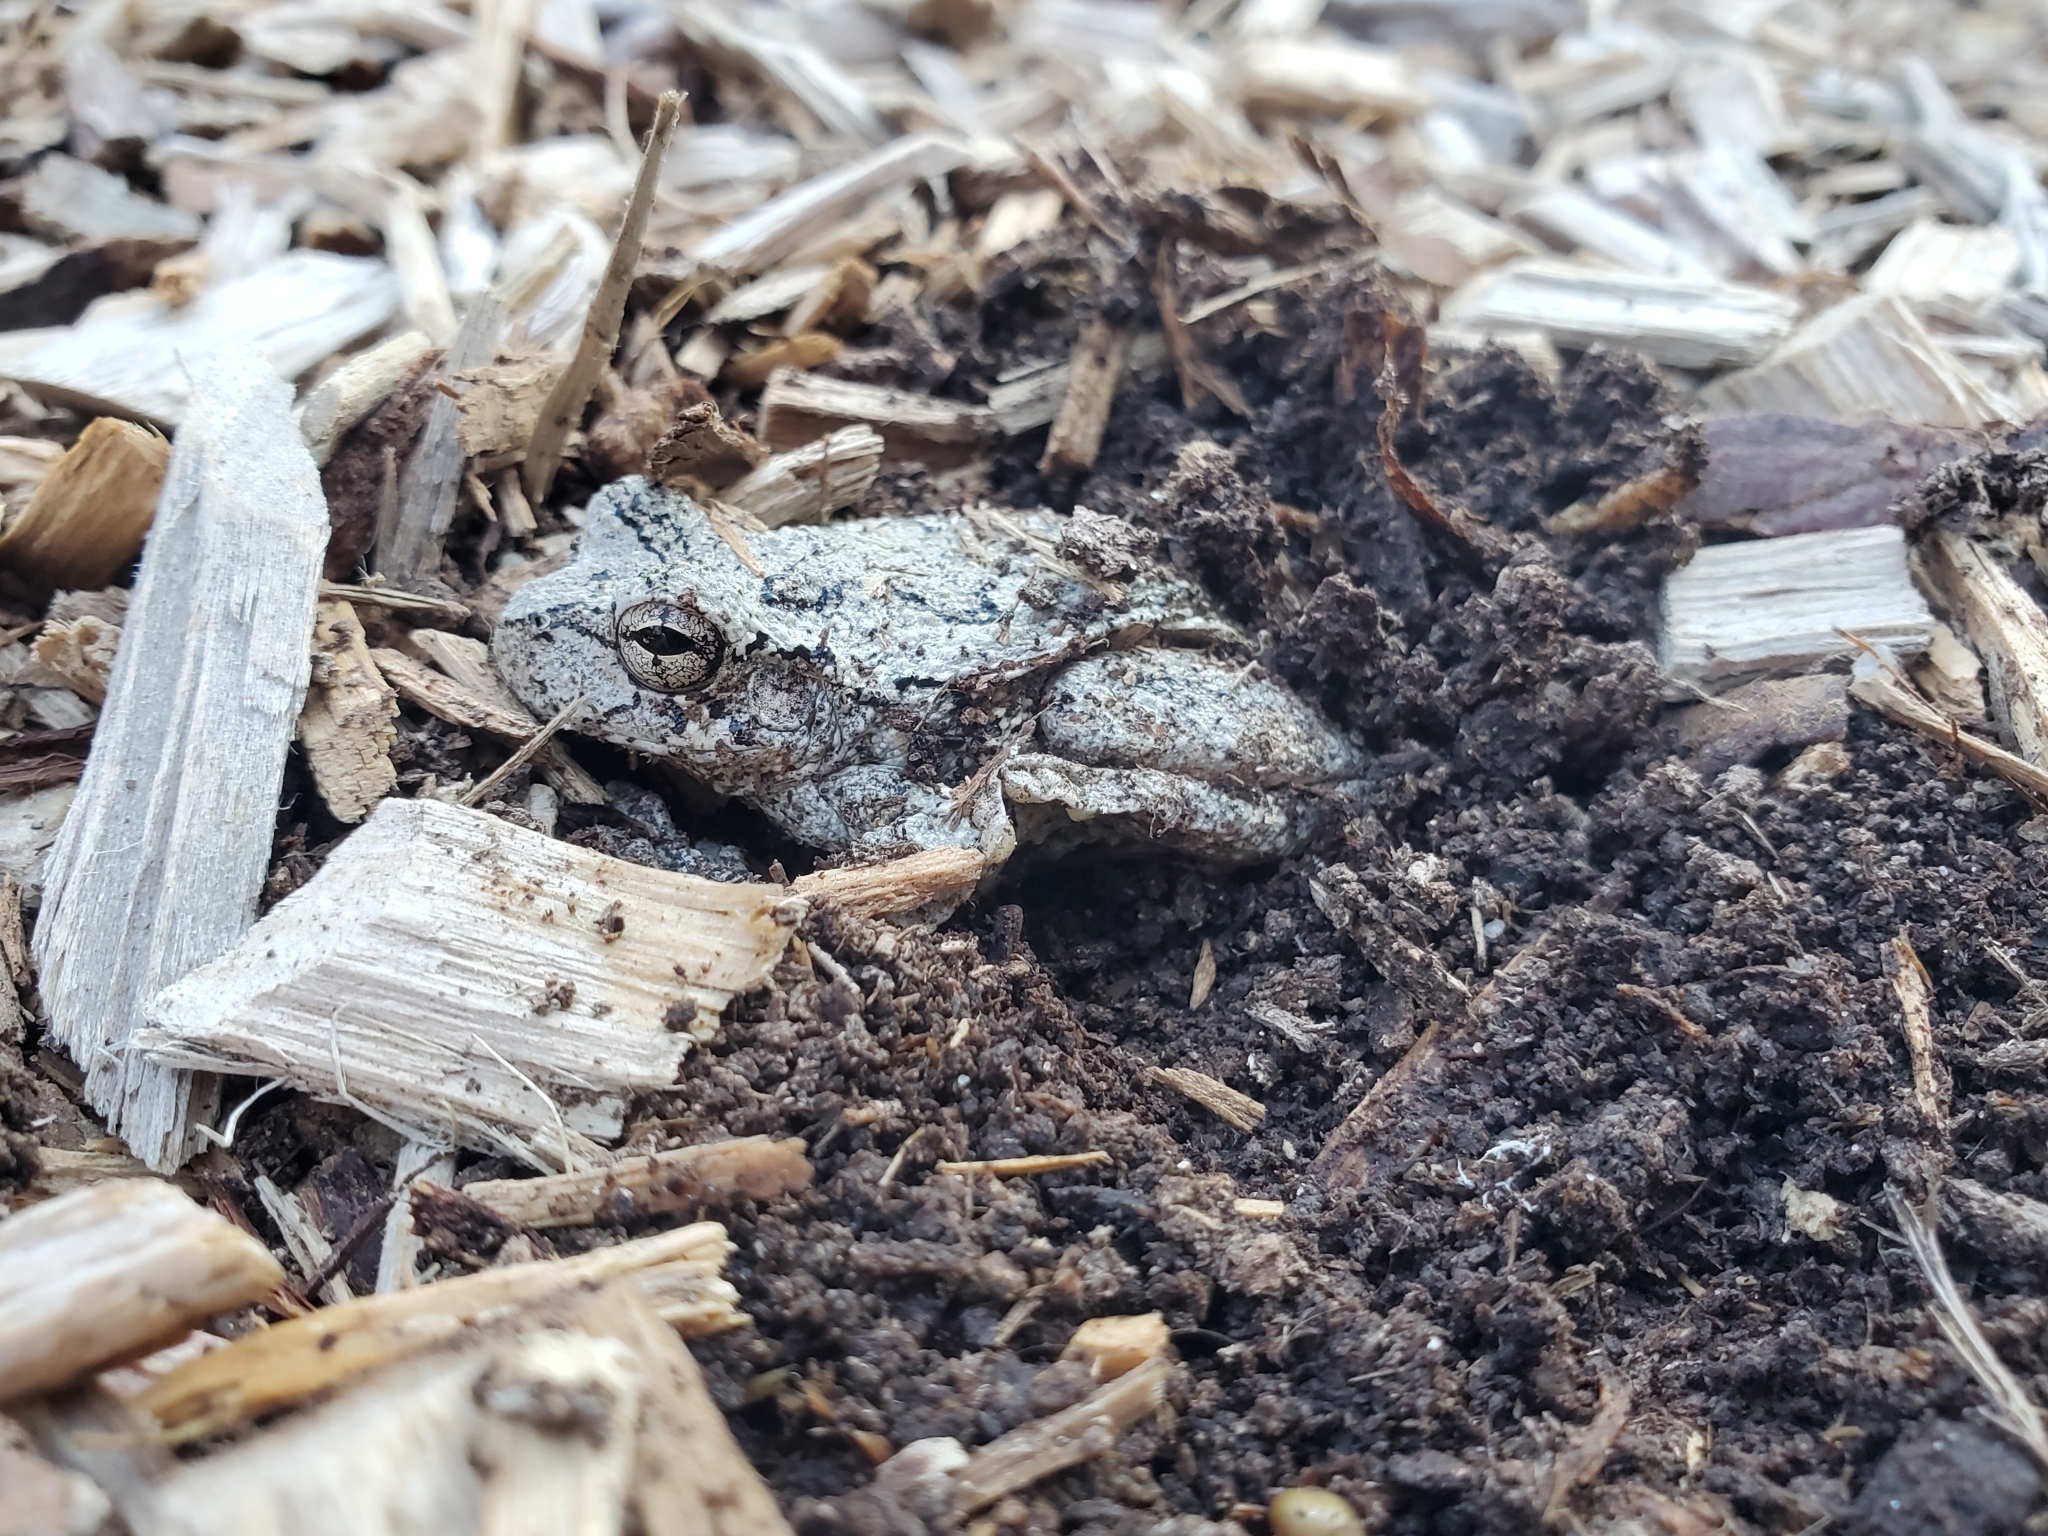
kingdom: Animalia
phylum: Chordata
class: Amphibia
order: Anura
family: Hylidae
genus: Hyla
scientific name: Hyla
